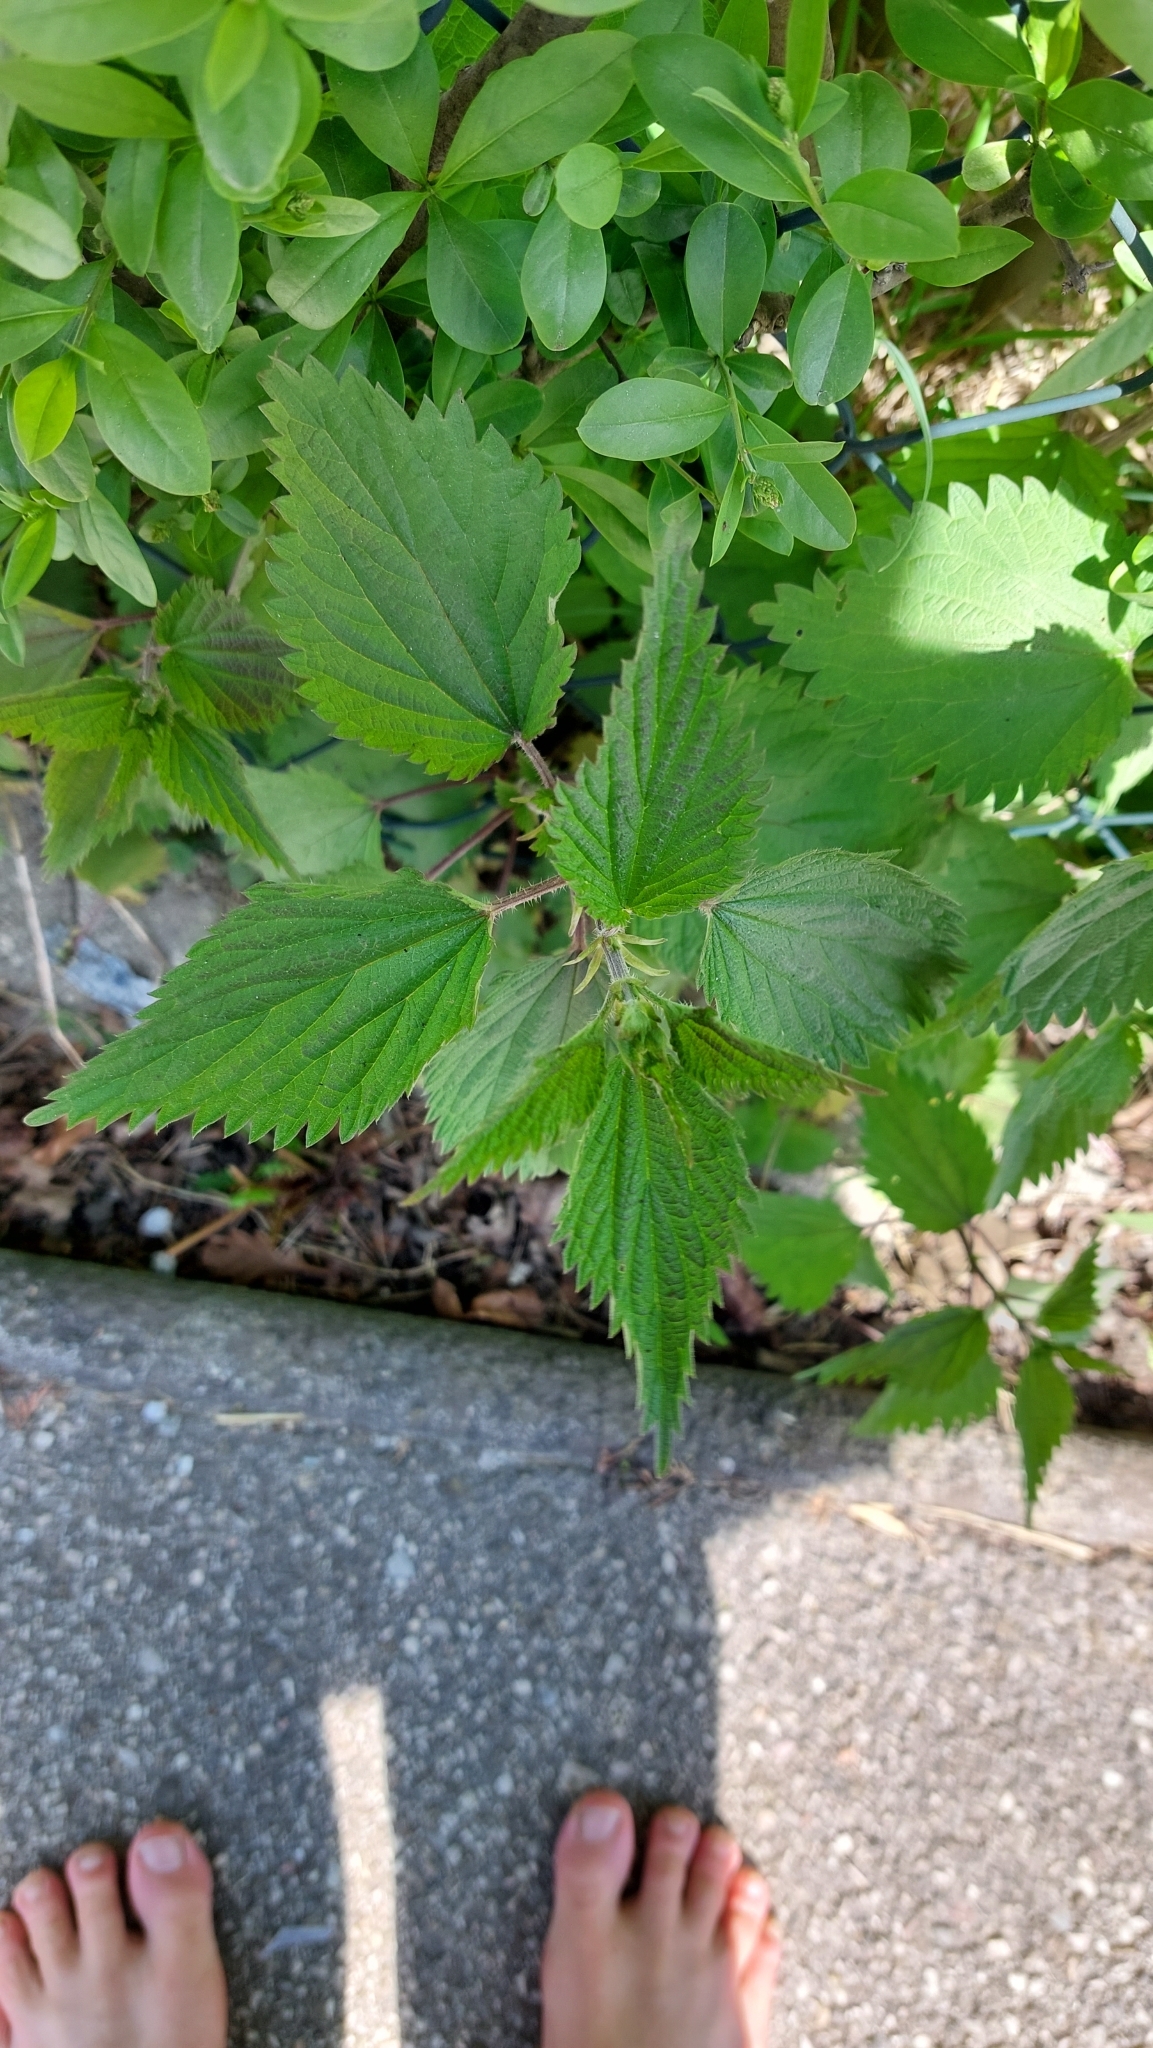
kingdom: Plantae
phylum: Tracheophyta
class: Magnoliopsida
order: Rosales
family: Urticaceae
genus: Urtica
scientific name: Urtica dioica
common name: Common nettle
